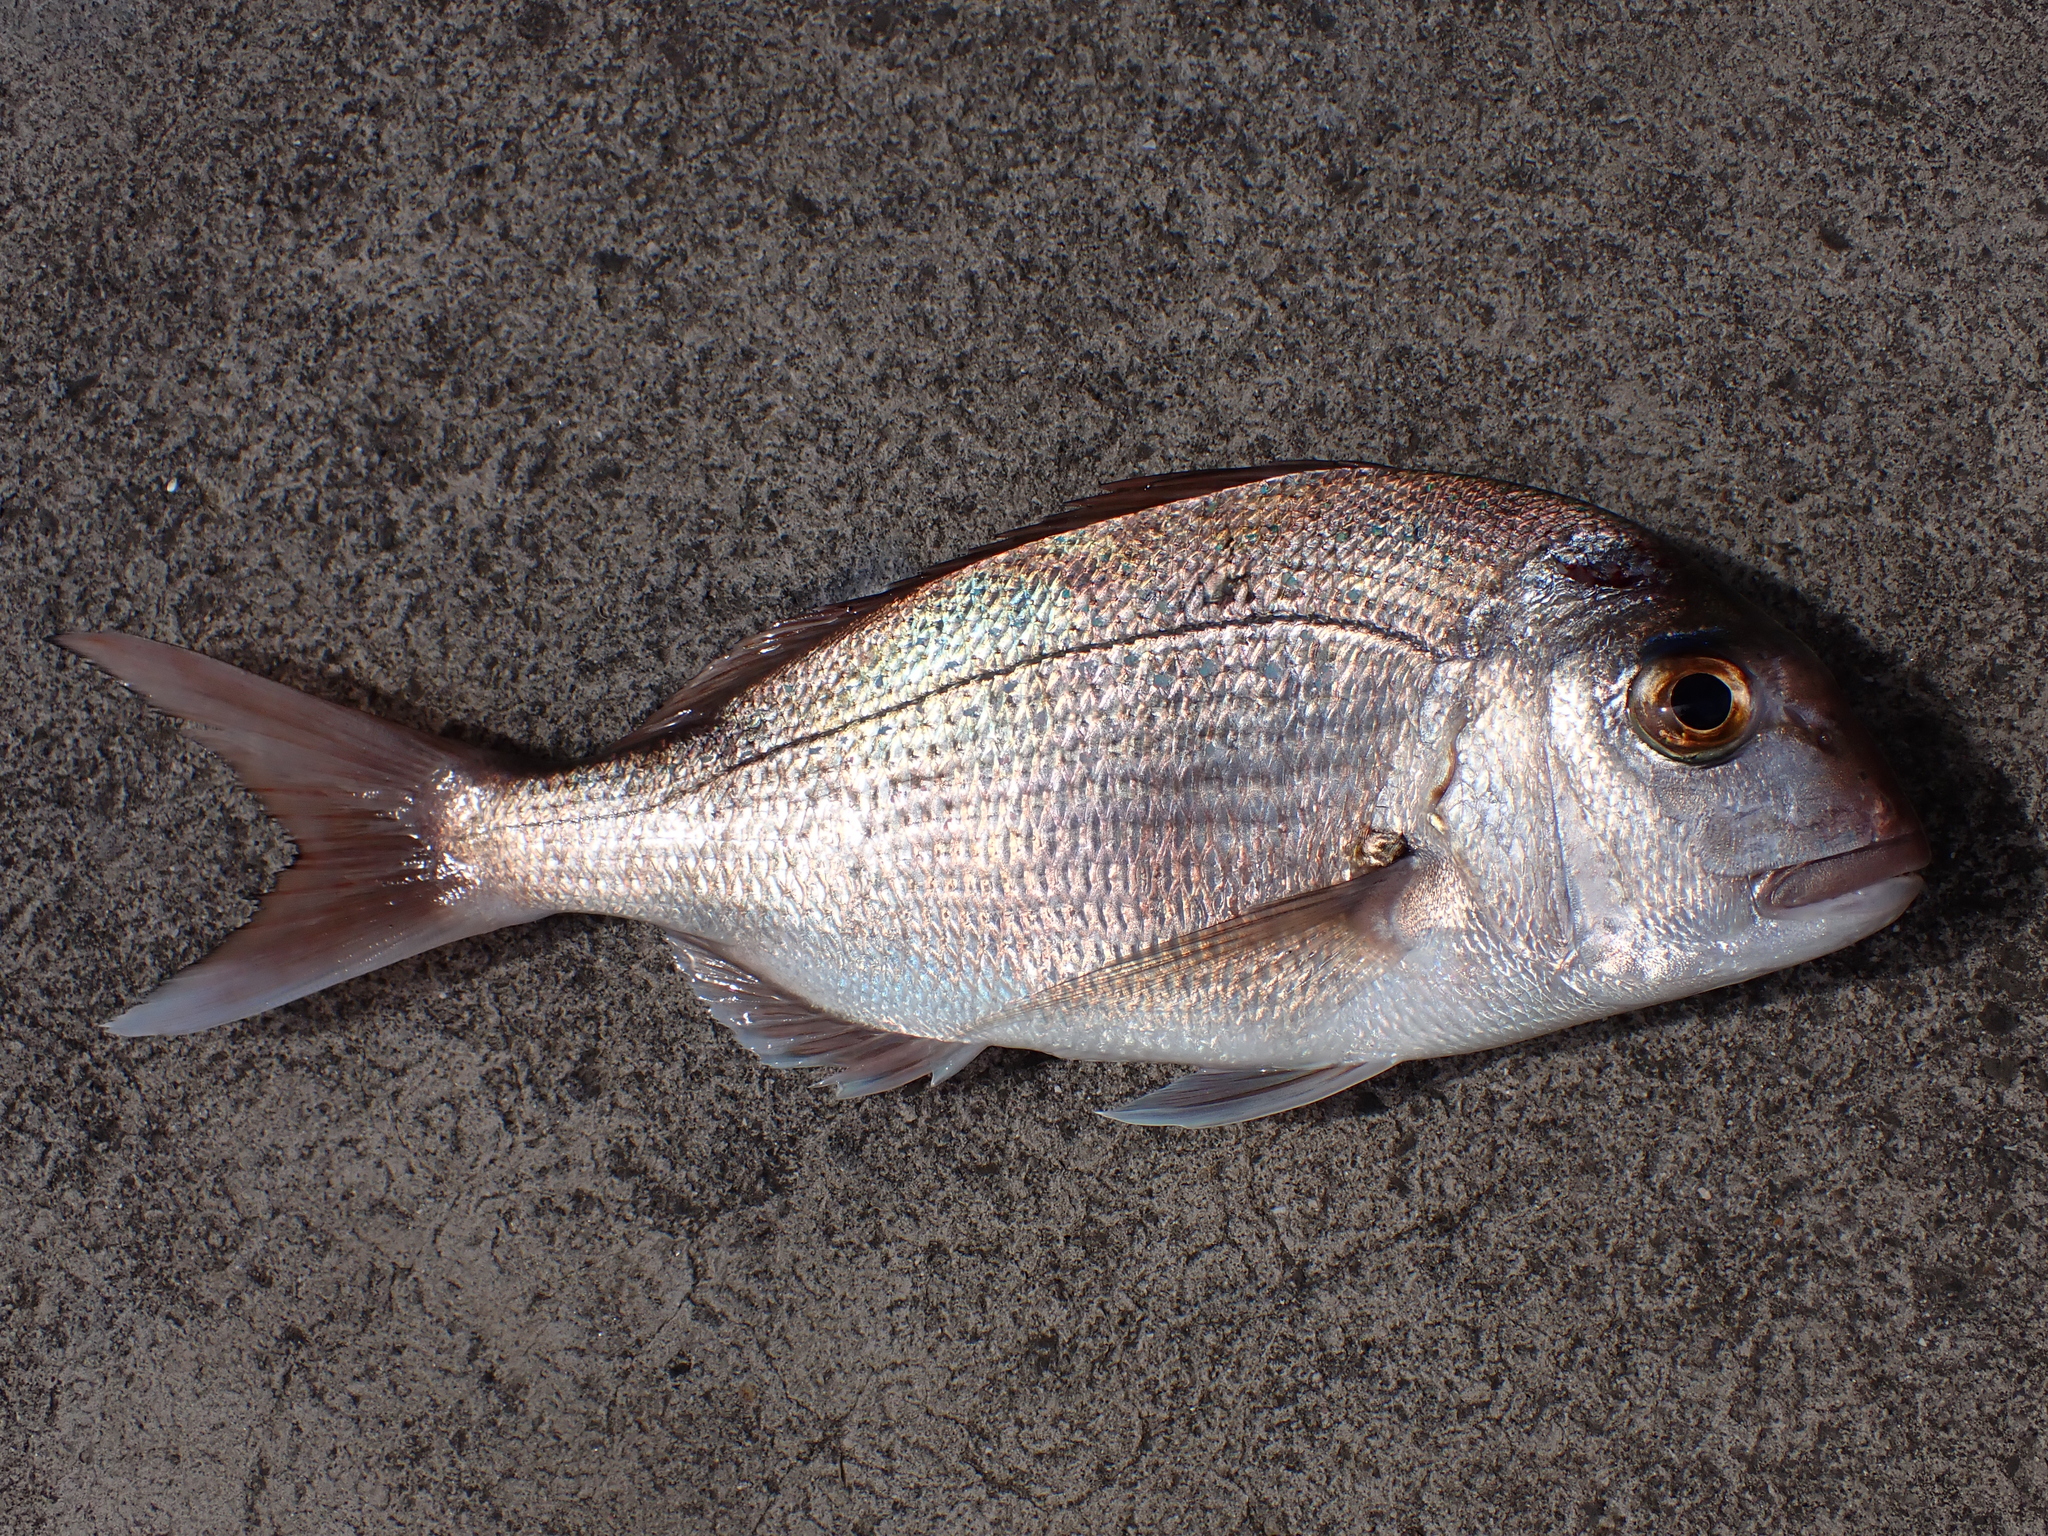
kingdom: Animalia
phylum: Chordata
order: Perciformes
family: Sparidae
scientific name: Sparidae
